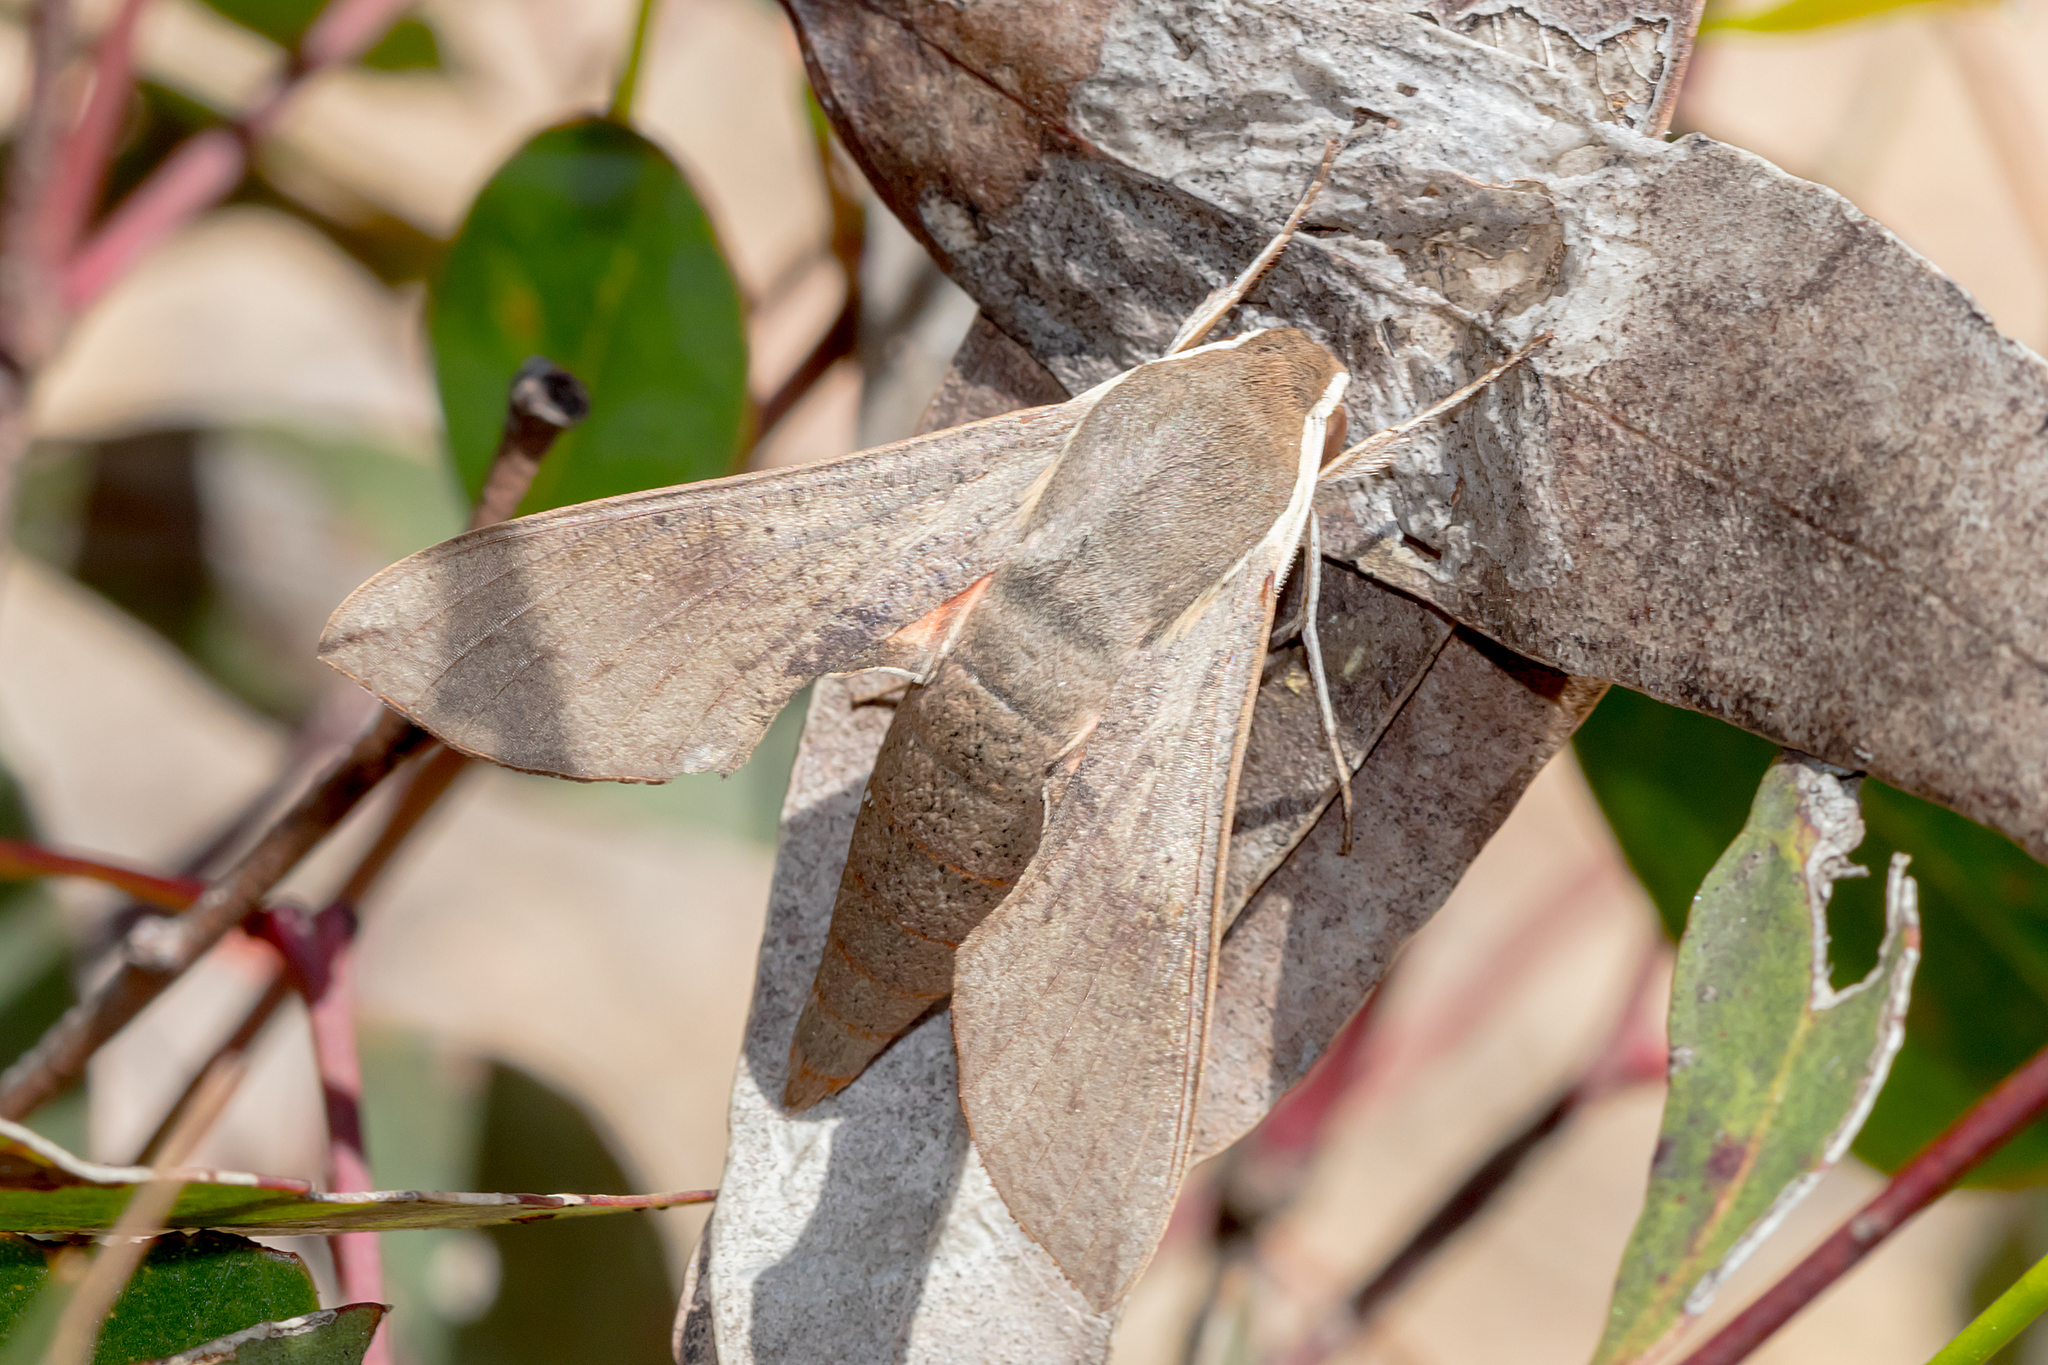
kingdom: Animalia
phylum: Arthropoda
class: Insecta
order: Lepidoptera
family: Sphingidae
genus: Hippotion
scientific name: Hippotion scrofa
